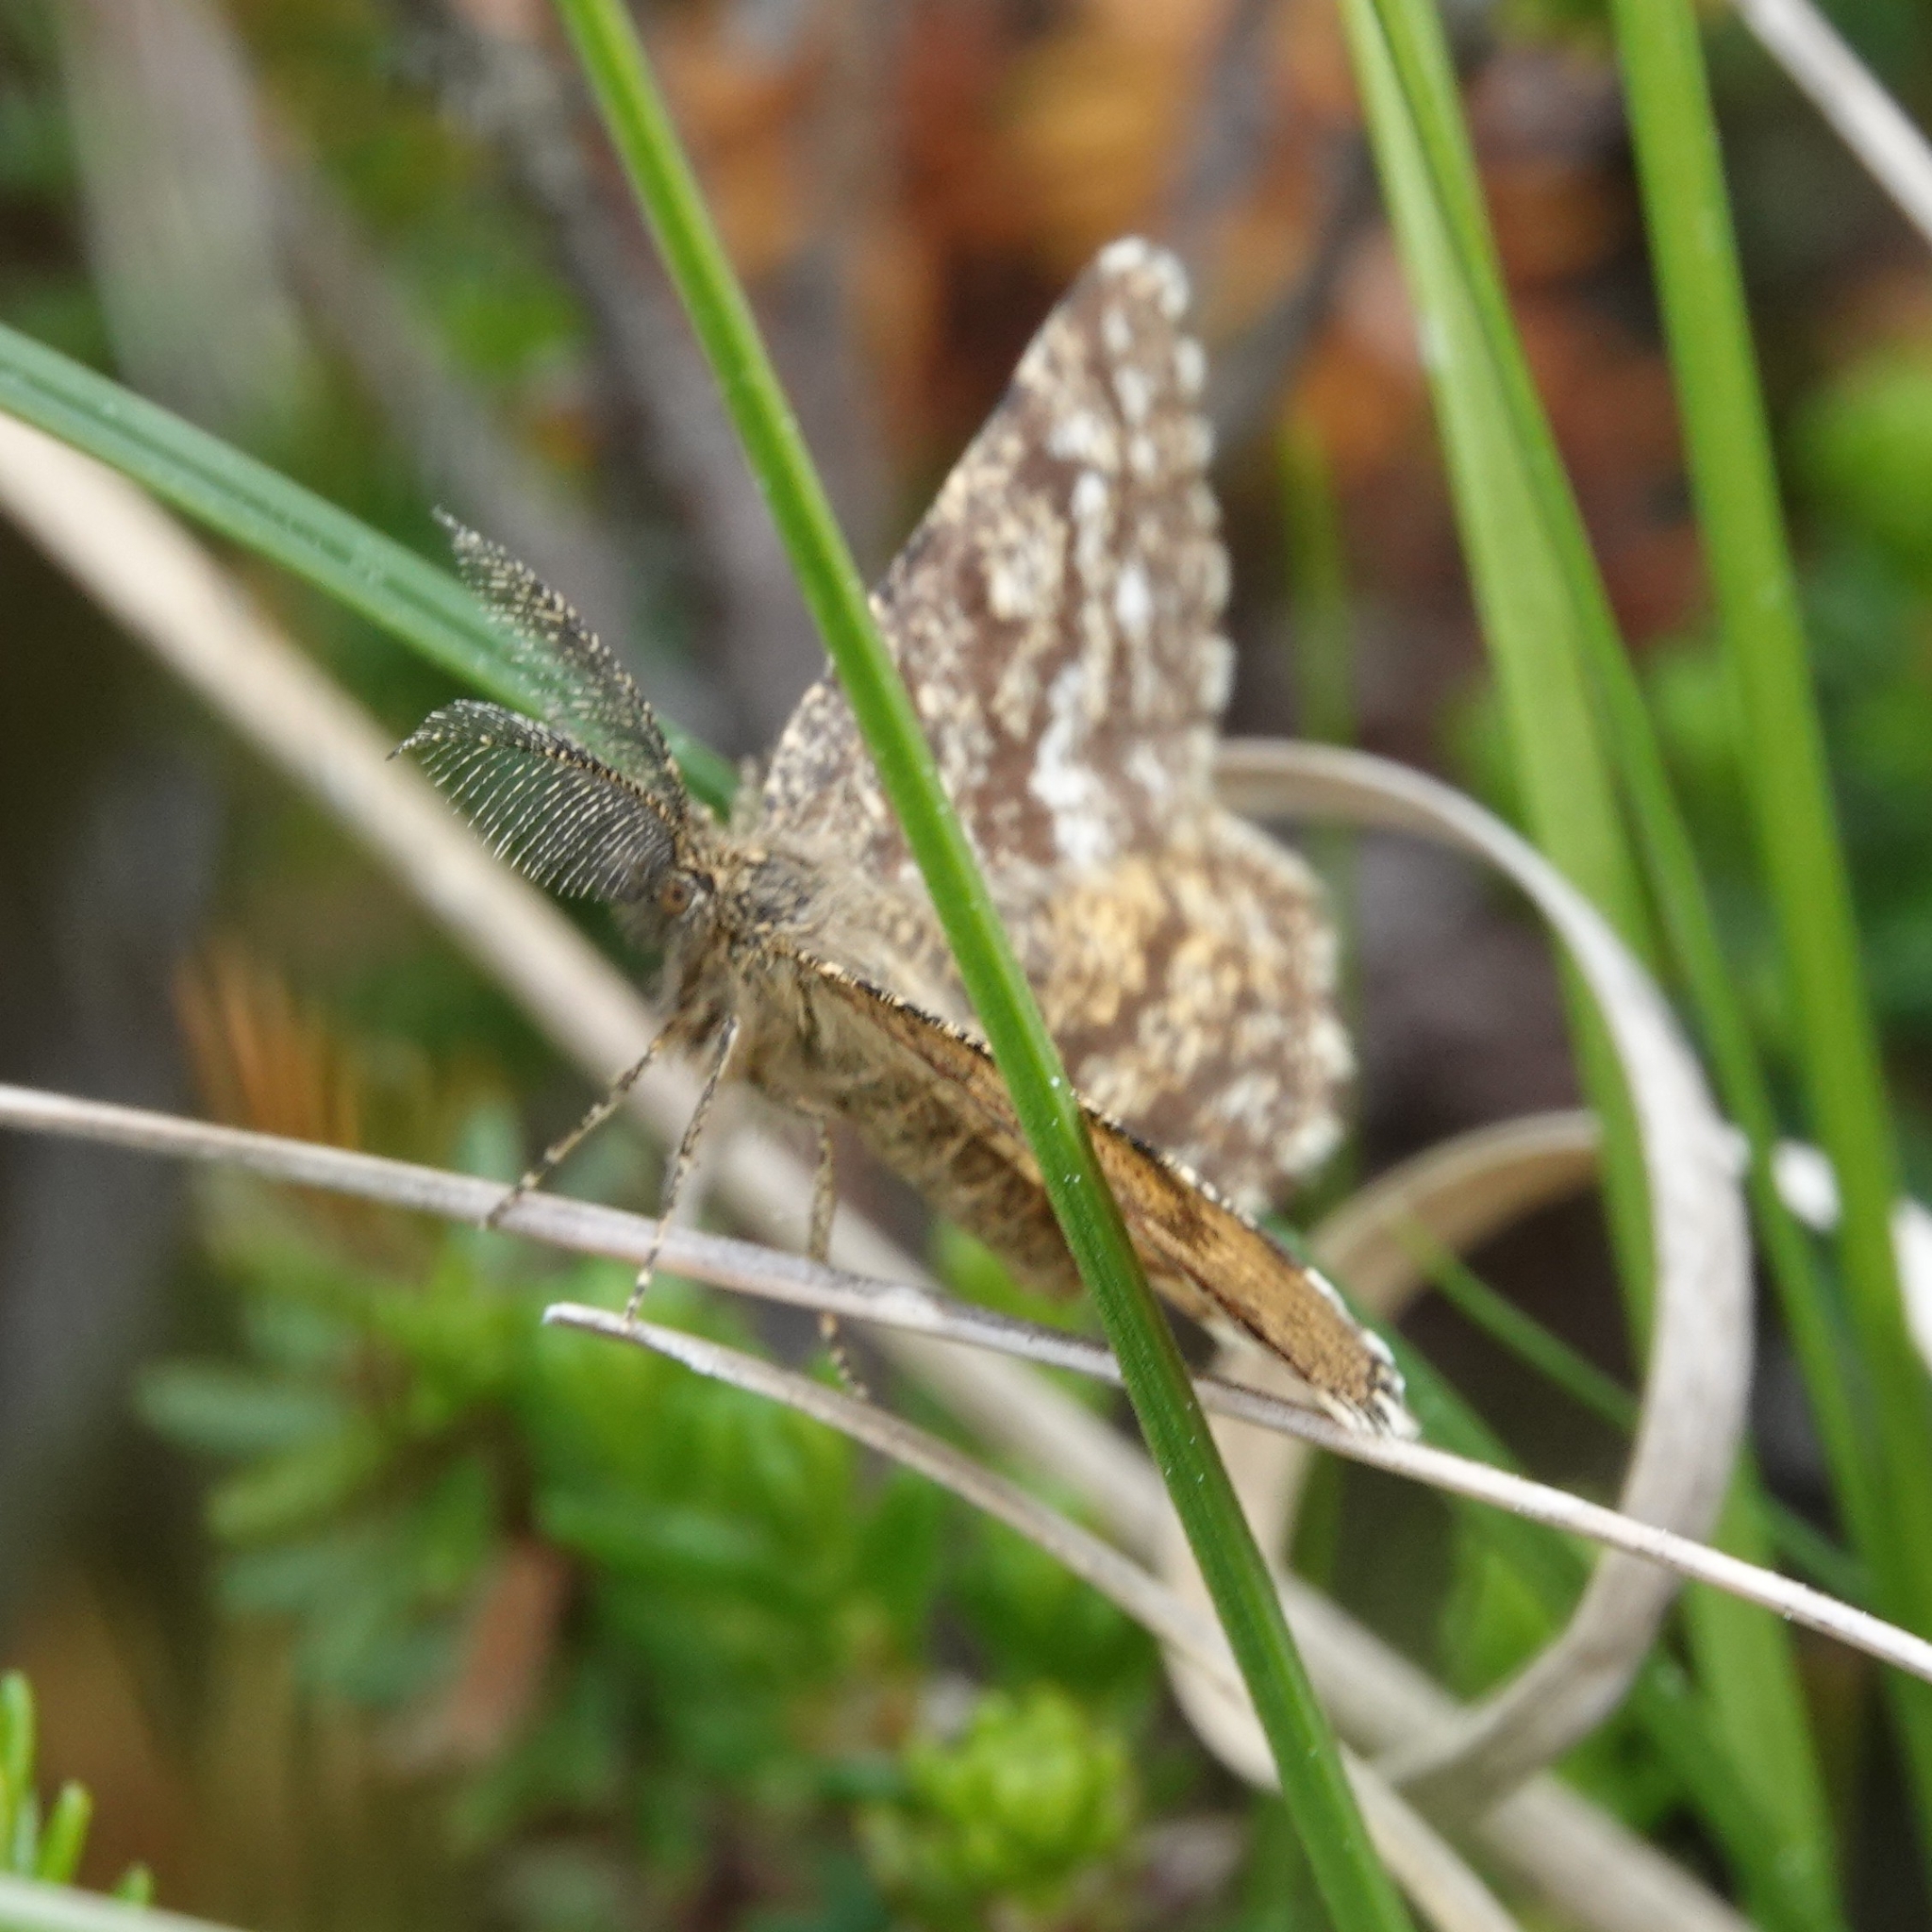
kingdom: Animalia
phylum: Arthropoda
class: Insecta
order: Lepidoptera
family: Geometridae
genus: Ematurga
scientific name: Ematurga atomaria
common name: Common heath
